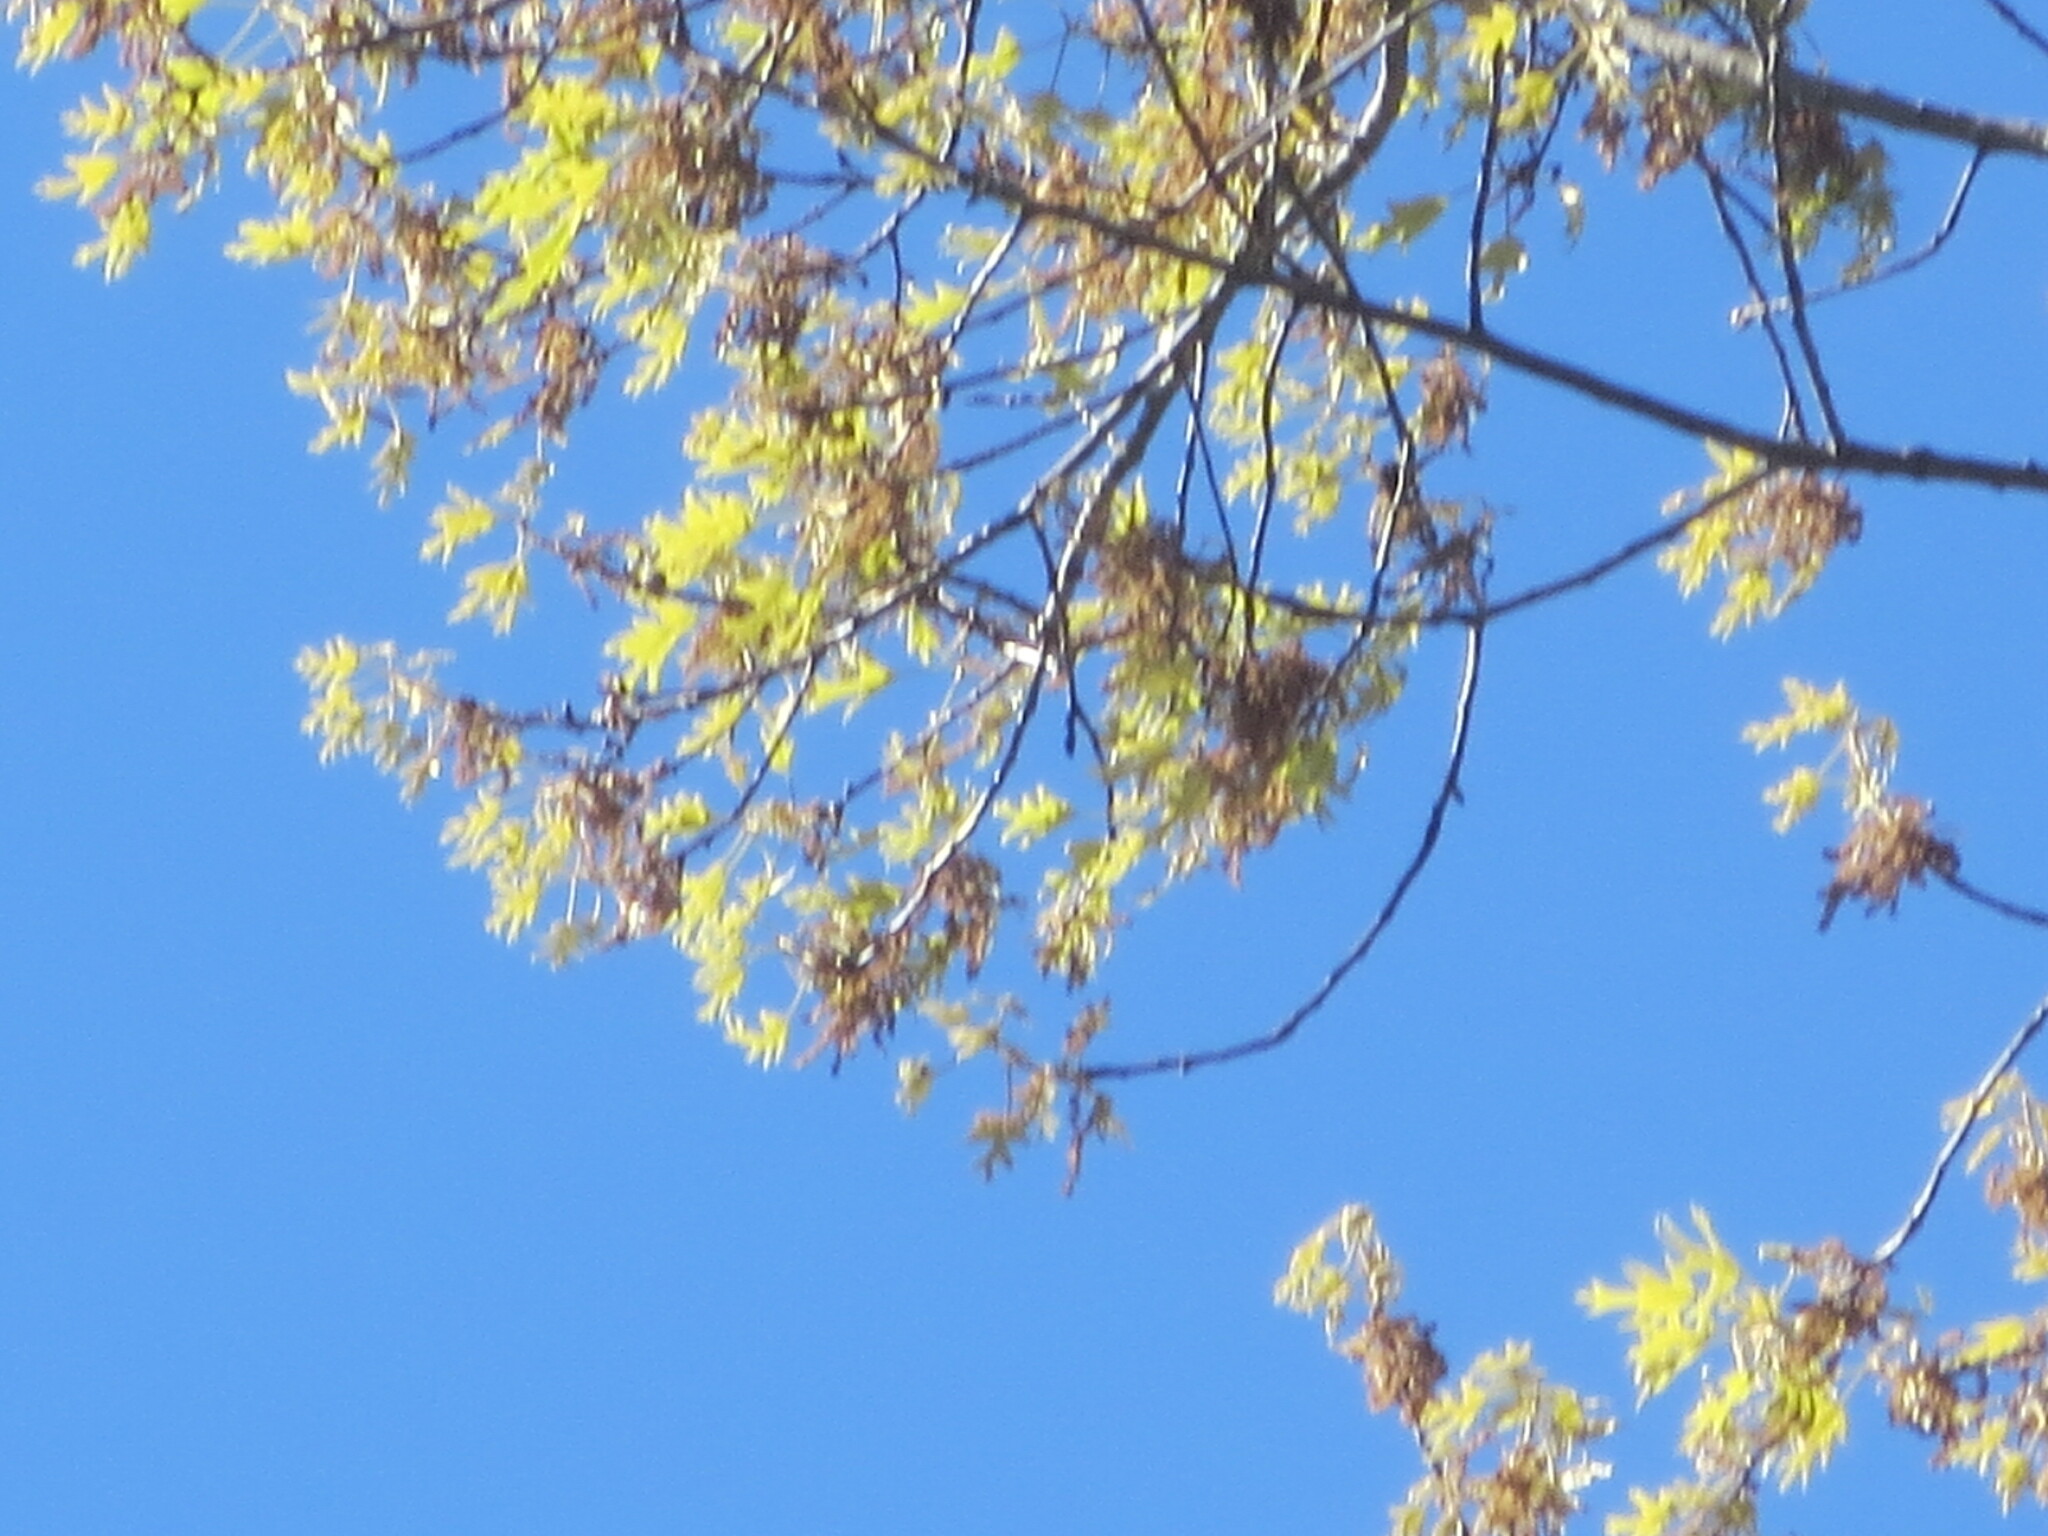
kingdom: Plantae
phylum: Tracheophyta
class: Magnoliopsida
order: Fagales
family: Fagaceae
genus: Quercus
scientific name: Quercus falcata
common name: Southern red oak
